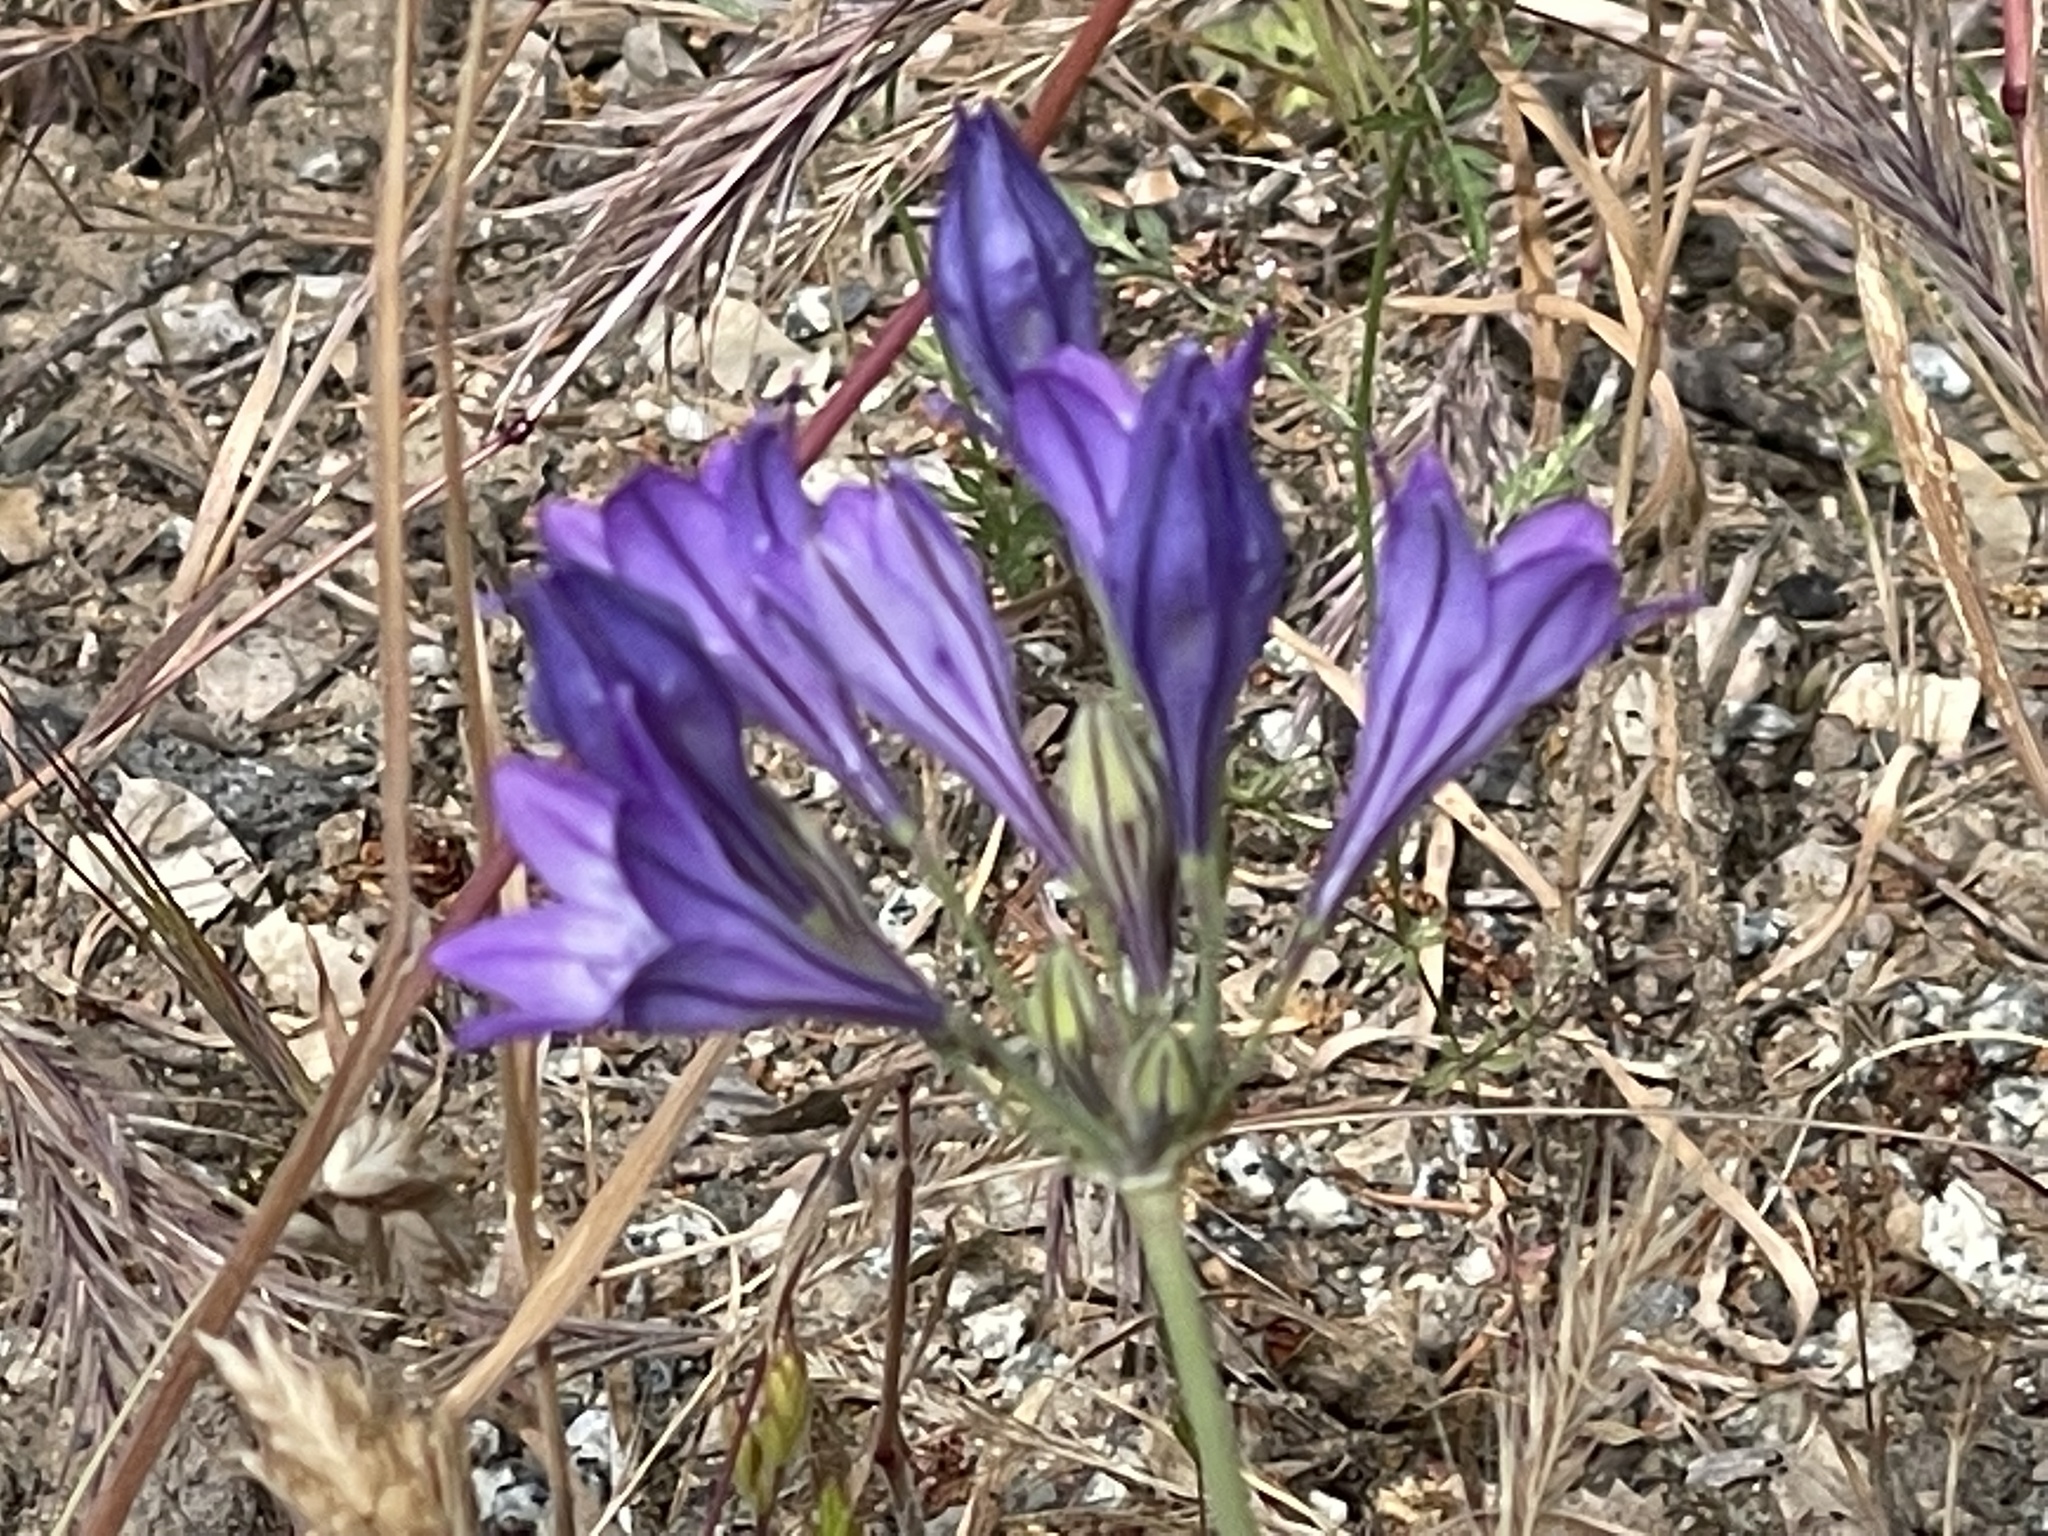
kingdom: Plantae
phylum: Tracheophyta
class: Liliopsida
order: Asparagales
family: Asparagaceae
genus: Triteleia
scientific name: Triteleia laxa
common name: Triplet-lily
